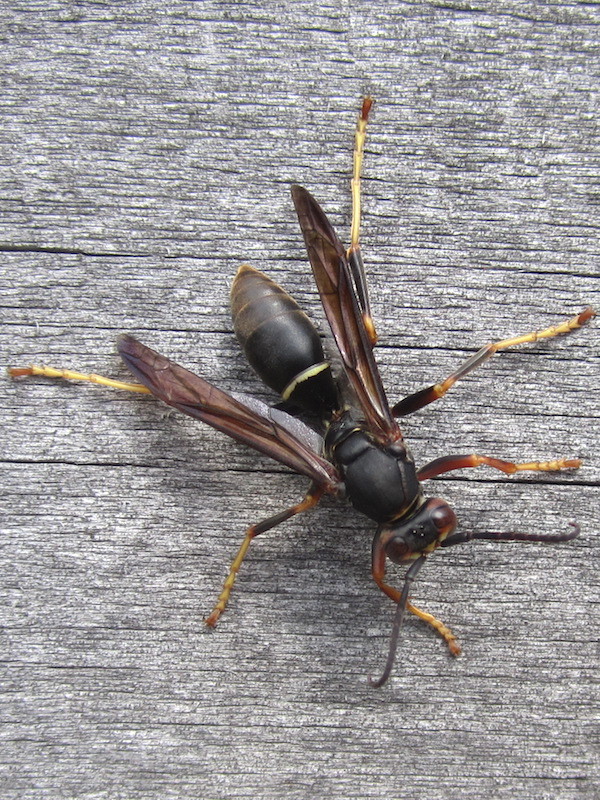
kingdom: Animalia
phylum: Arthropoda
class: Insecta
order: Hymenoptera
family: Eumenidae
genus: Polistes
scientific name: Polistes parametricus
